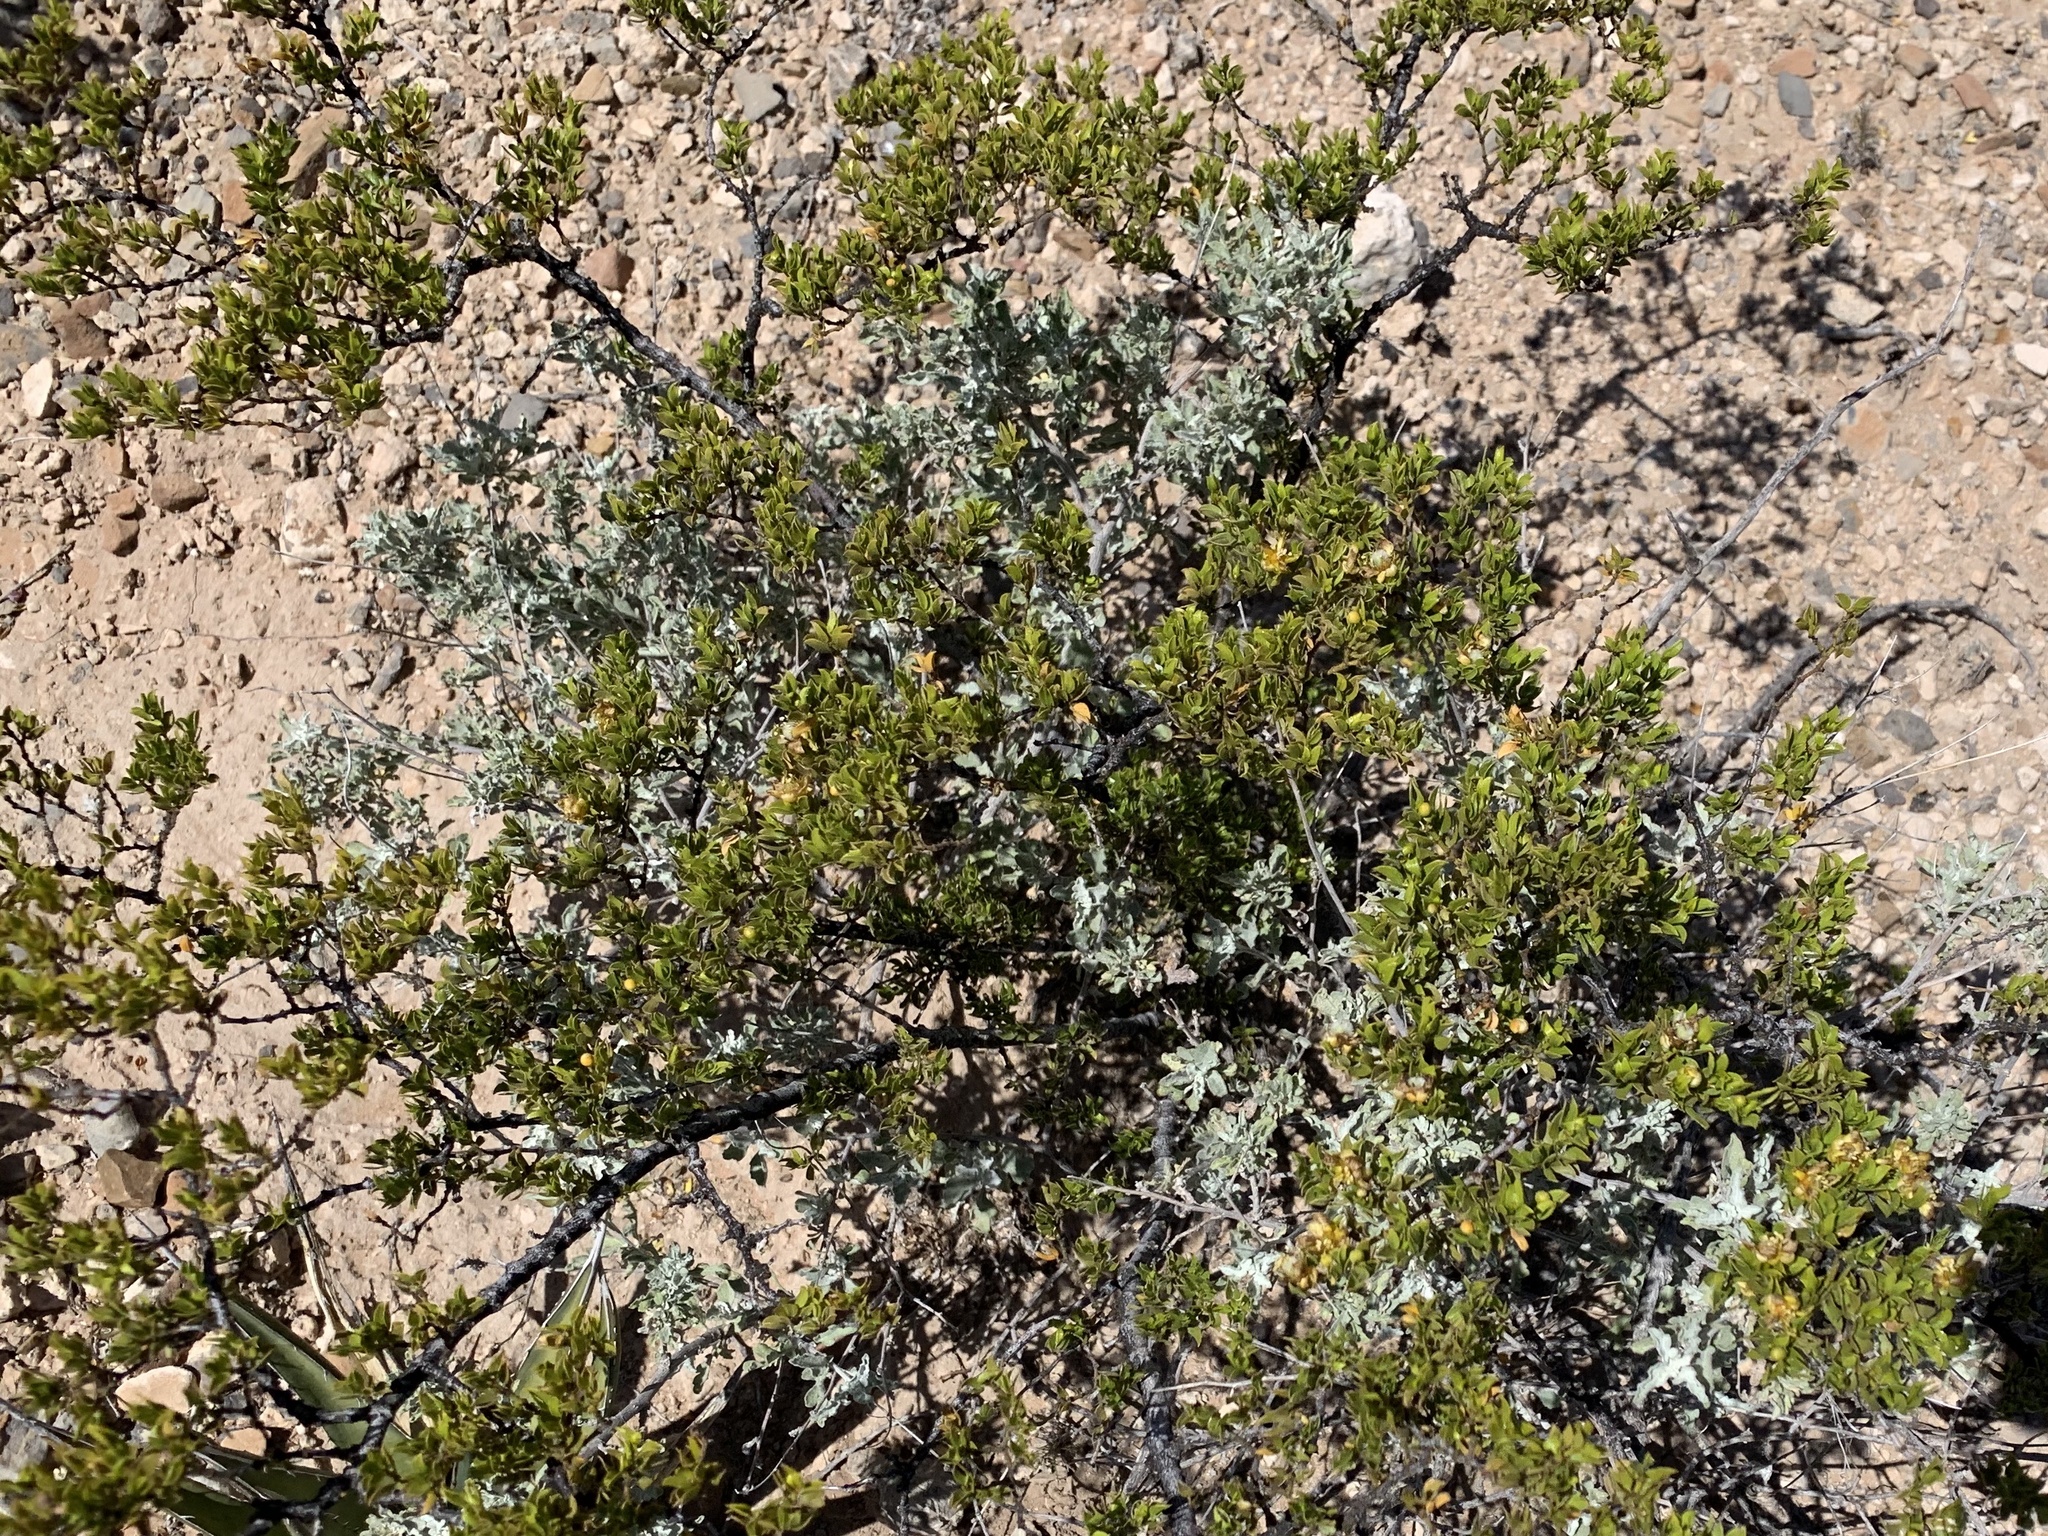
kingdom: Plantae
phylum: Tracheophyta
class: Magnoliopsida
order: Zygophyllales
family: Zygophyllaceae
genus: Larrea
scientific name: Larrea tridentata
